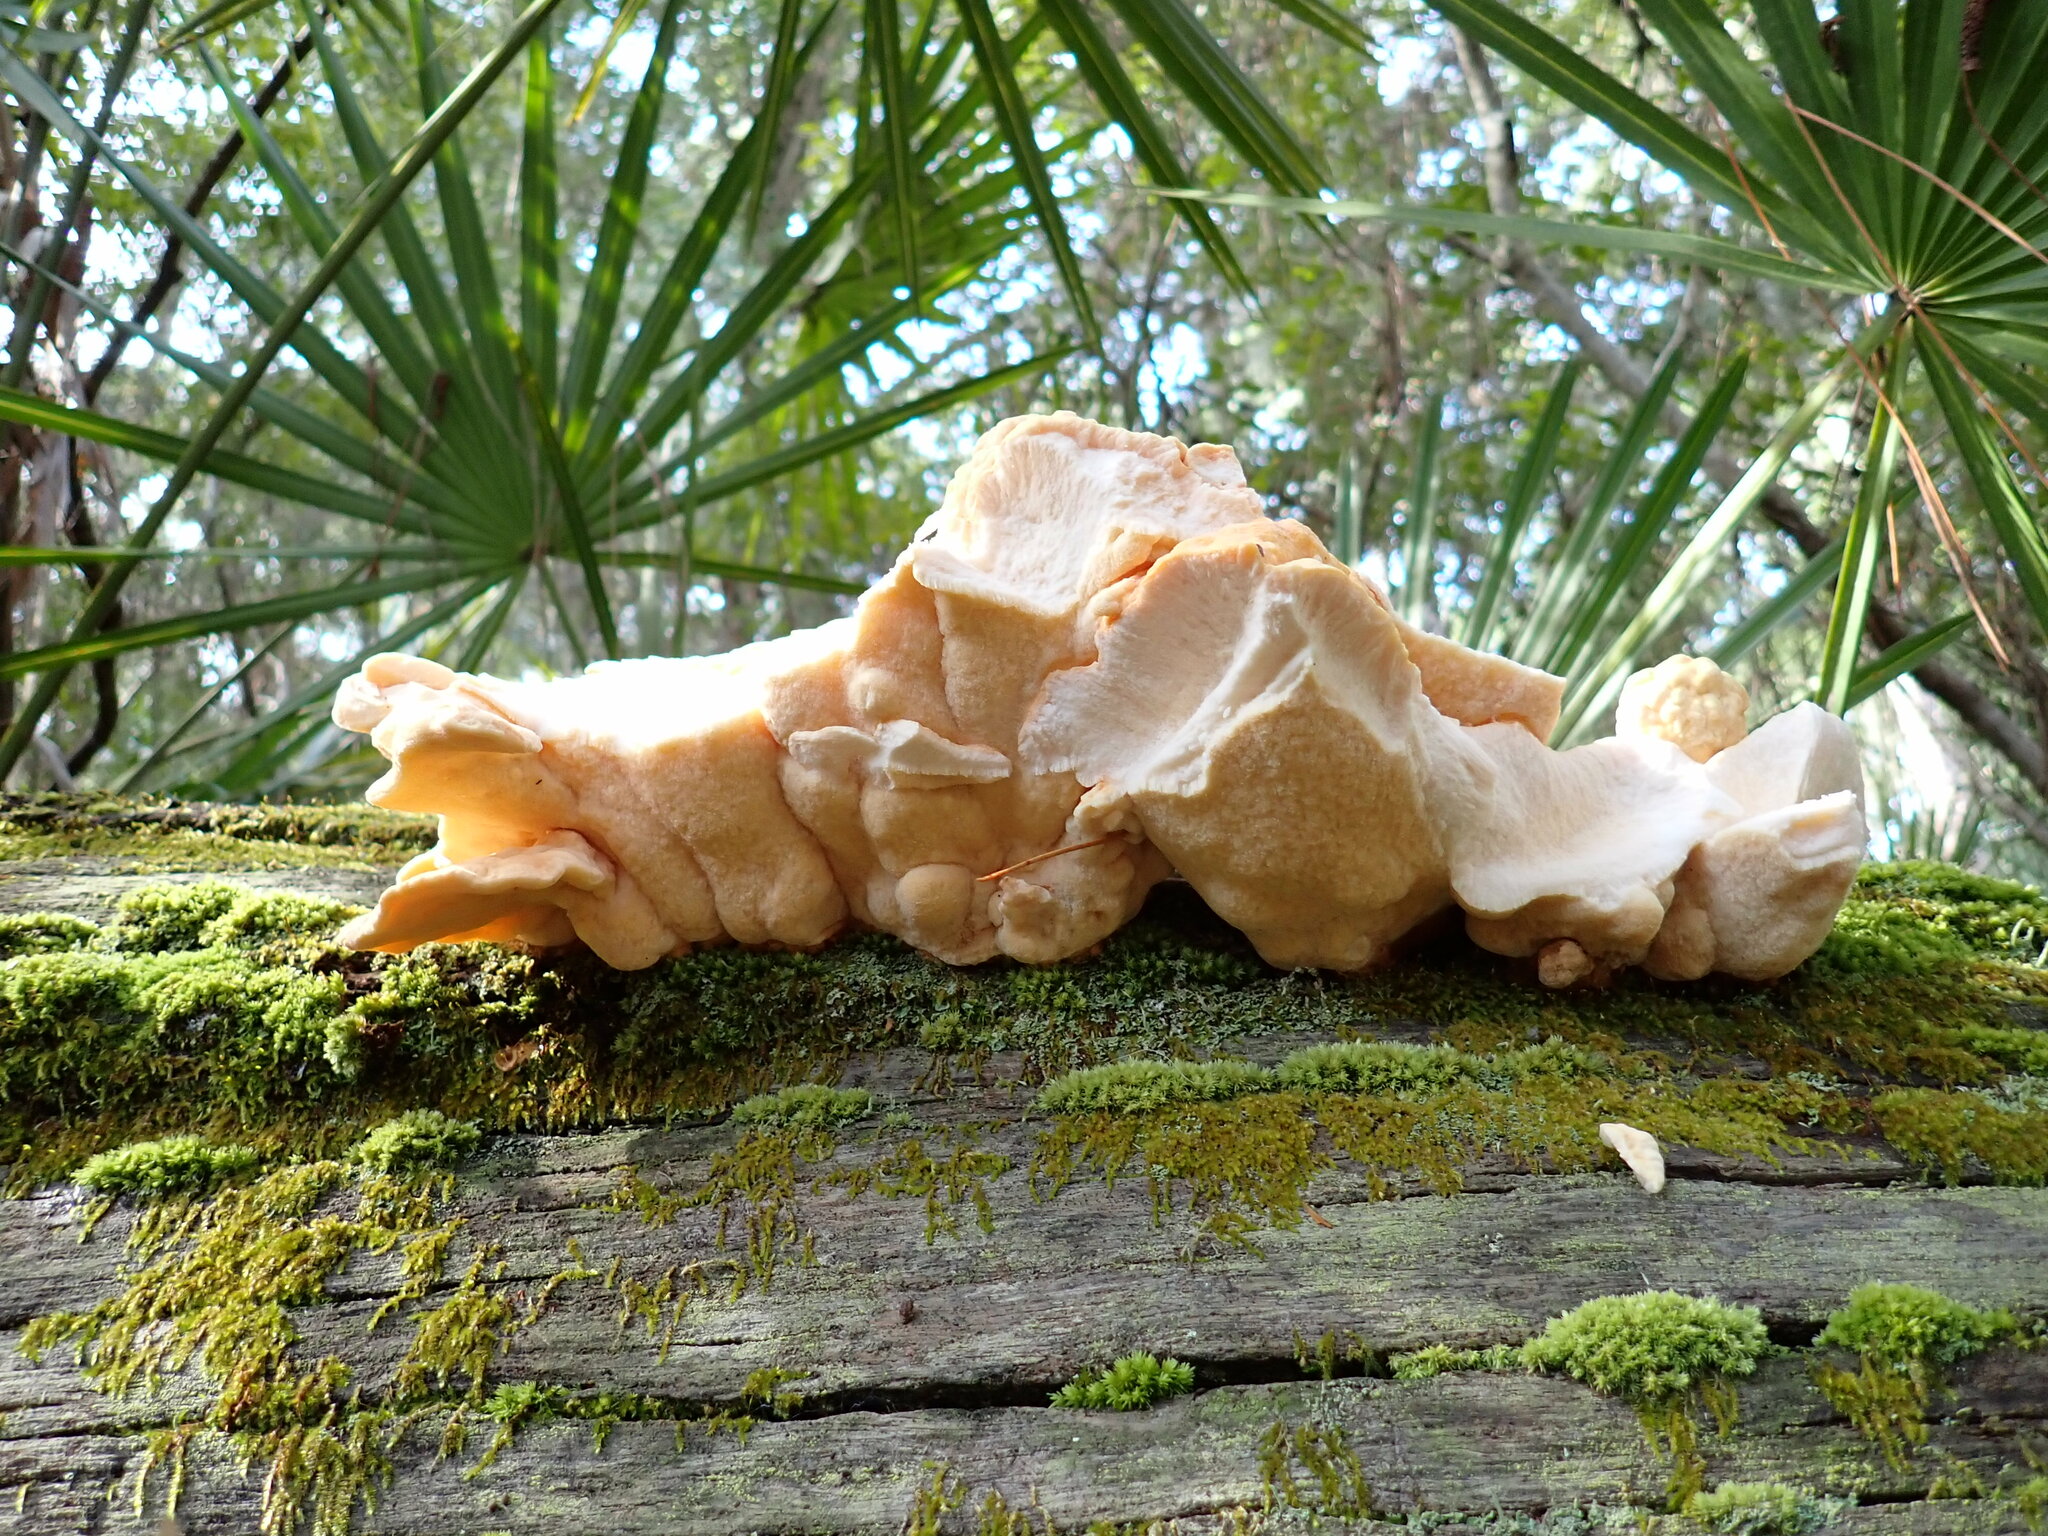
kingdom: Fungi
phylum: Basidiomycota
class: Agaricomycetes
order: Polyporales
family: Laetiporaceae
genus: Laetiporus
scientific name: Laetiporus sulphureus
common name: Chicken of the woods
